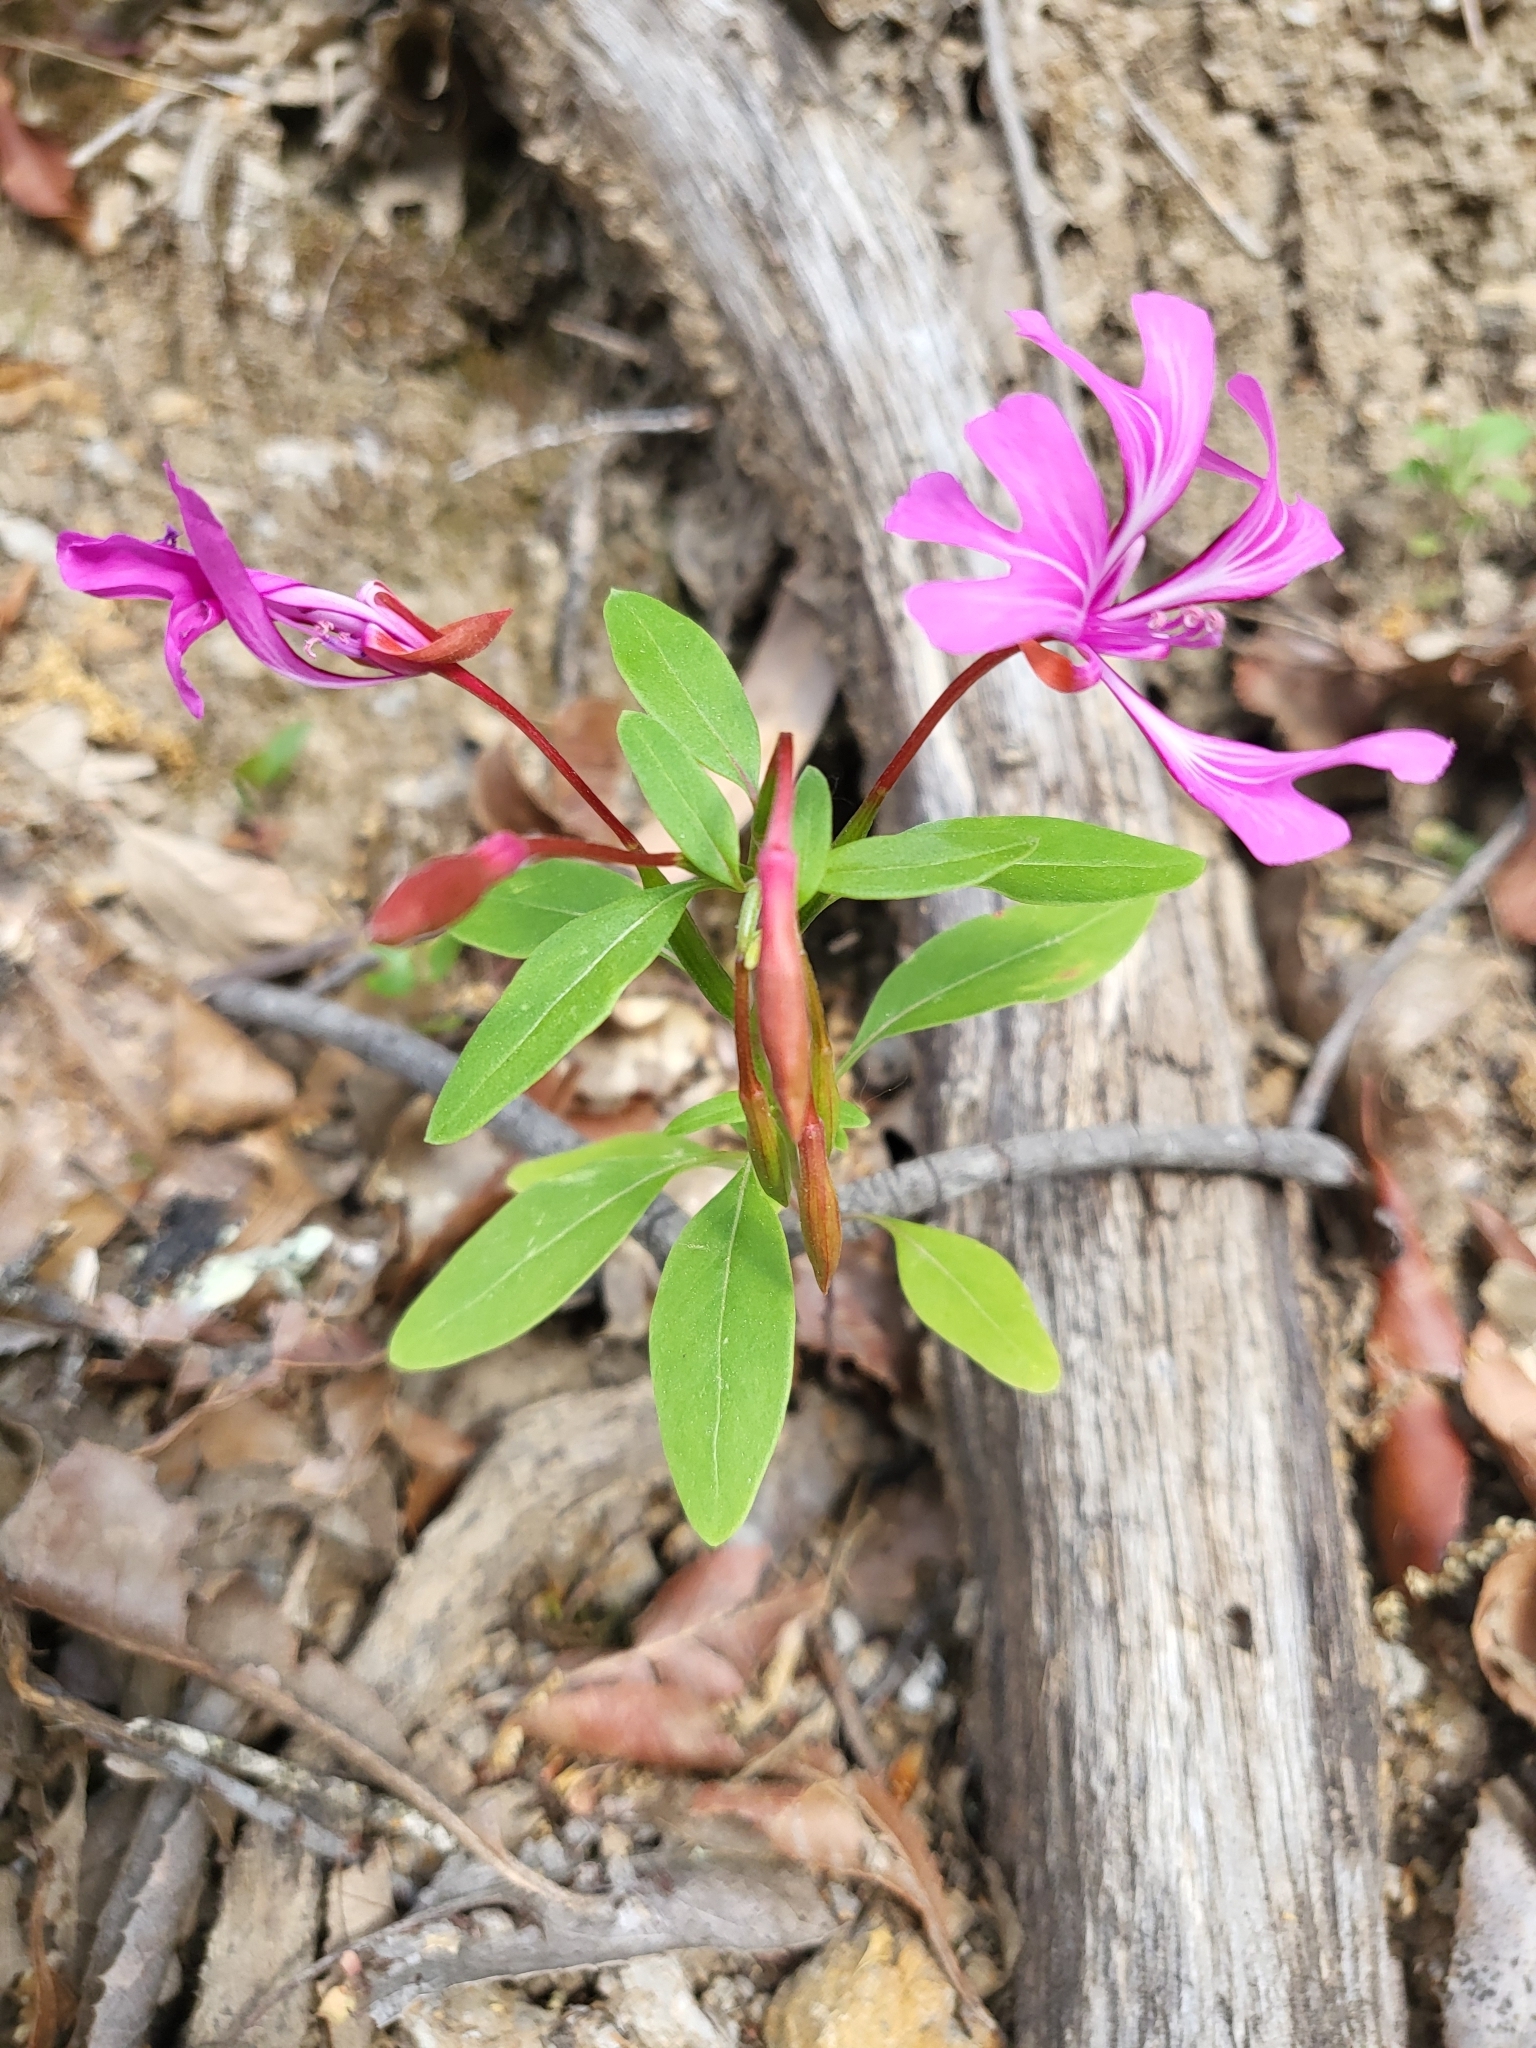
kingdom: Plantae
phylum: Tracheophyta
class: Magnoliopsida
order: Myrtales
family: Onagraceae
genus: Clarkia
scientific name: Clarkia concinna
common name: Red-ribbons
